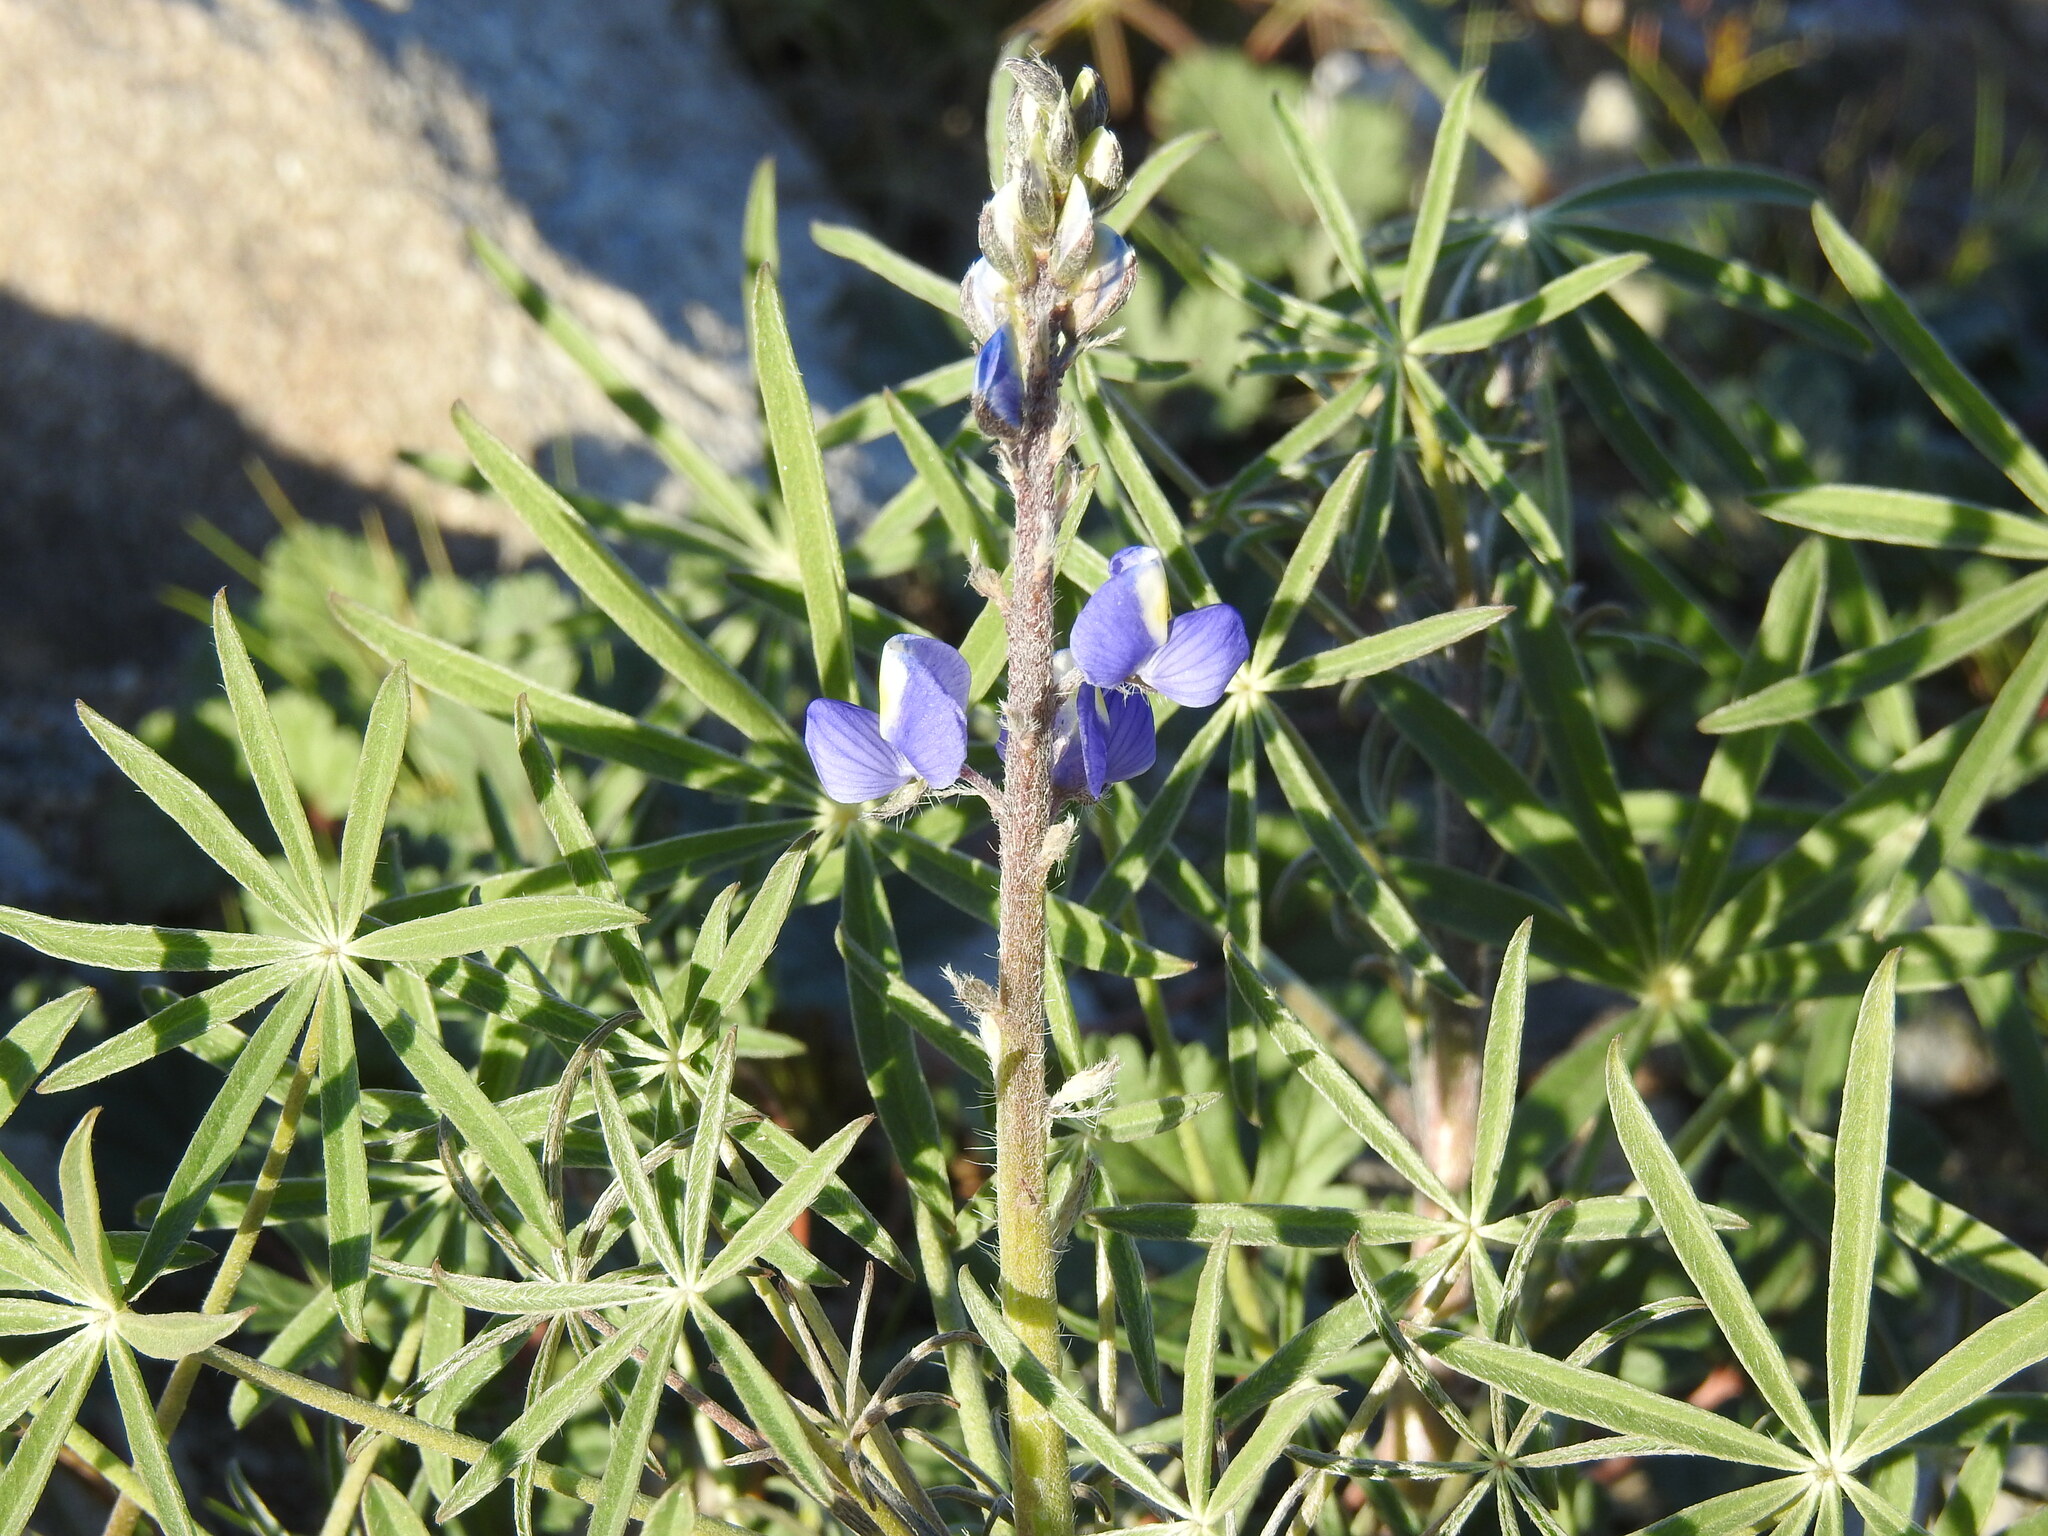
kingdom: Plantae
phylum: Tracheophyta
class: Magnoliopsida
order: Fabales
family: Fabaceae
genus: Lupinus
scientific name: Lupinus sparsiflorus
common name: Coulter's lupine
